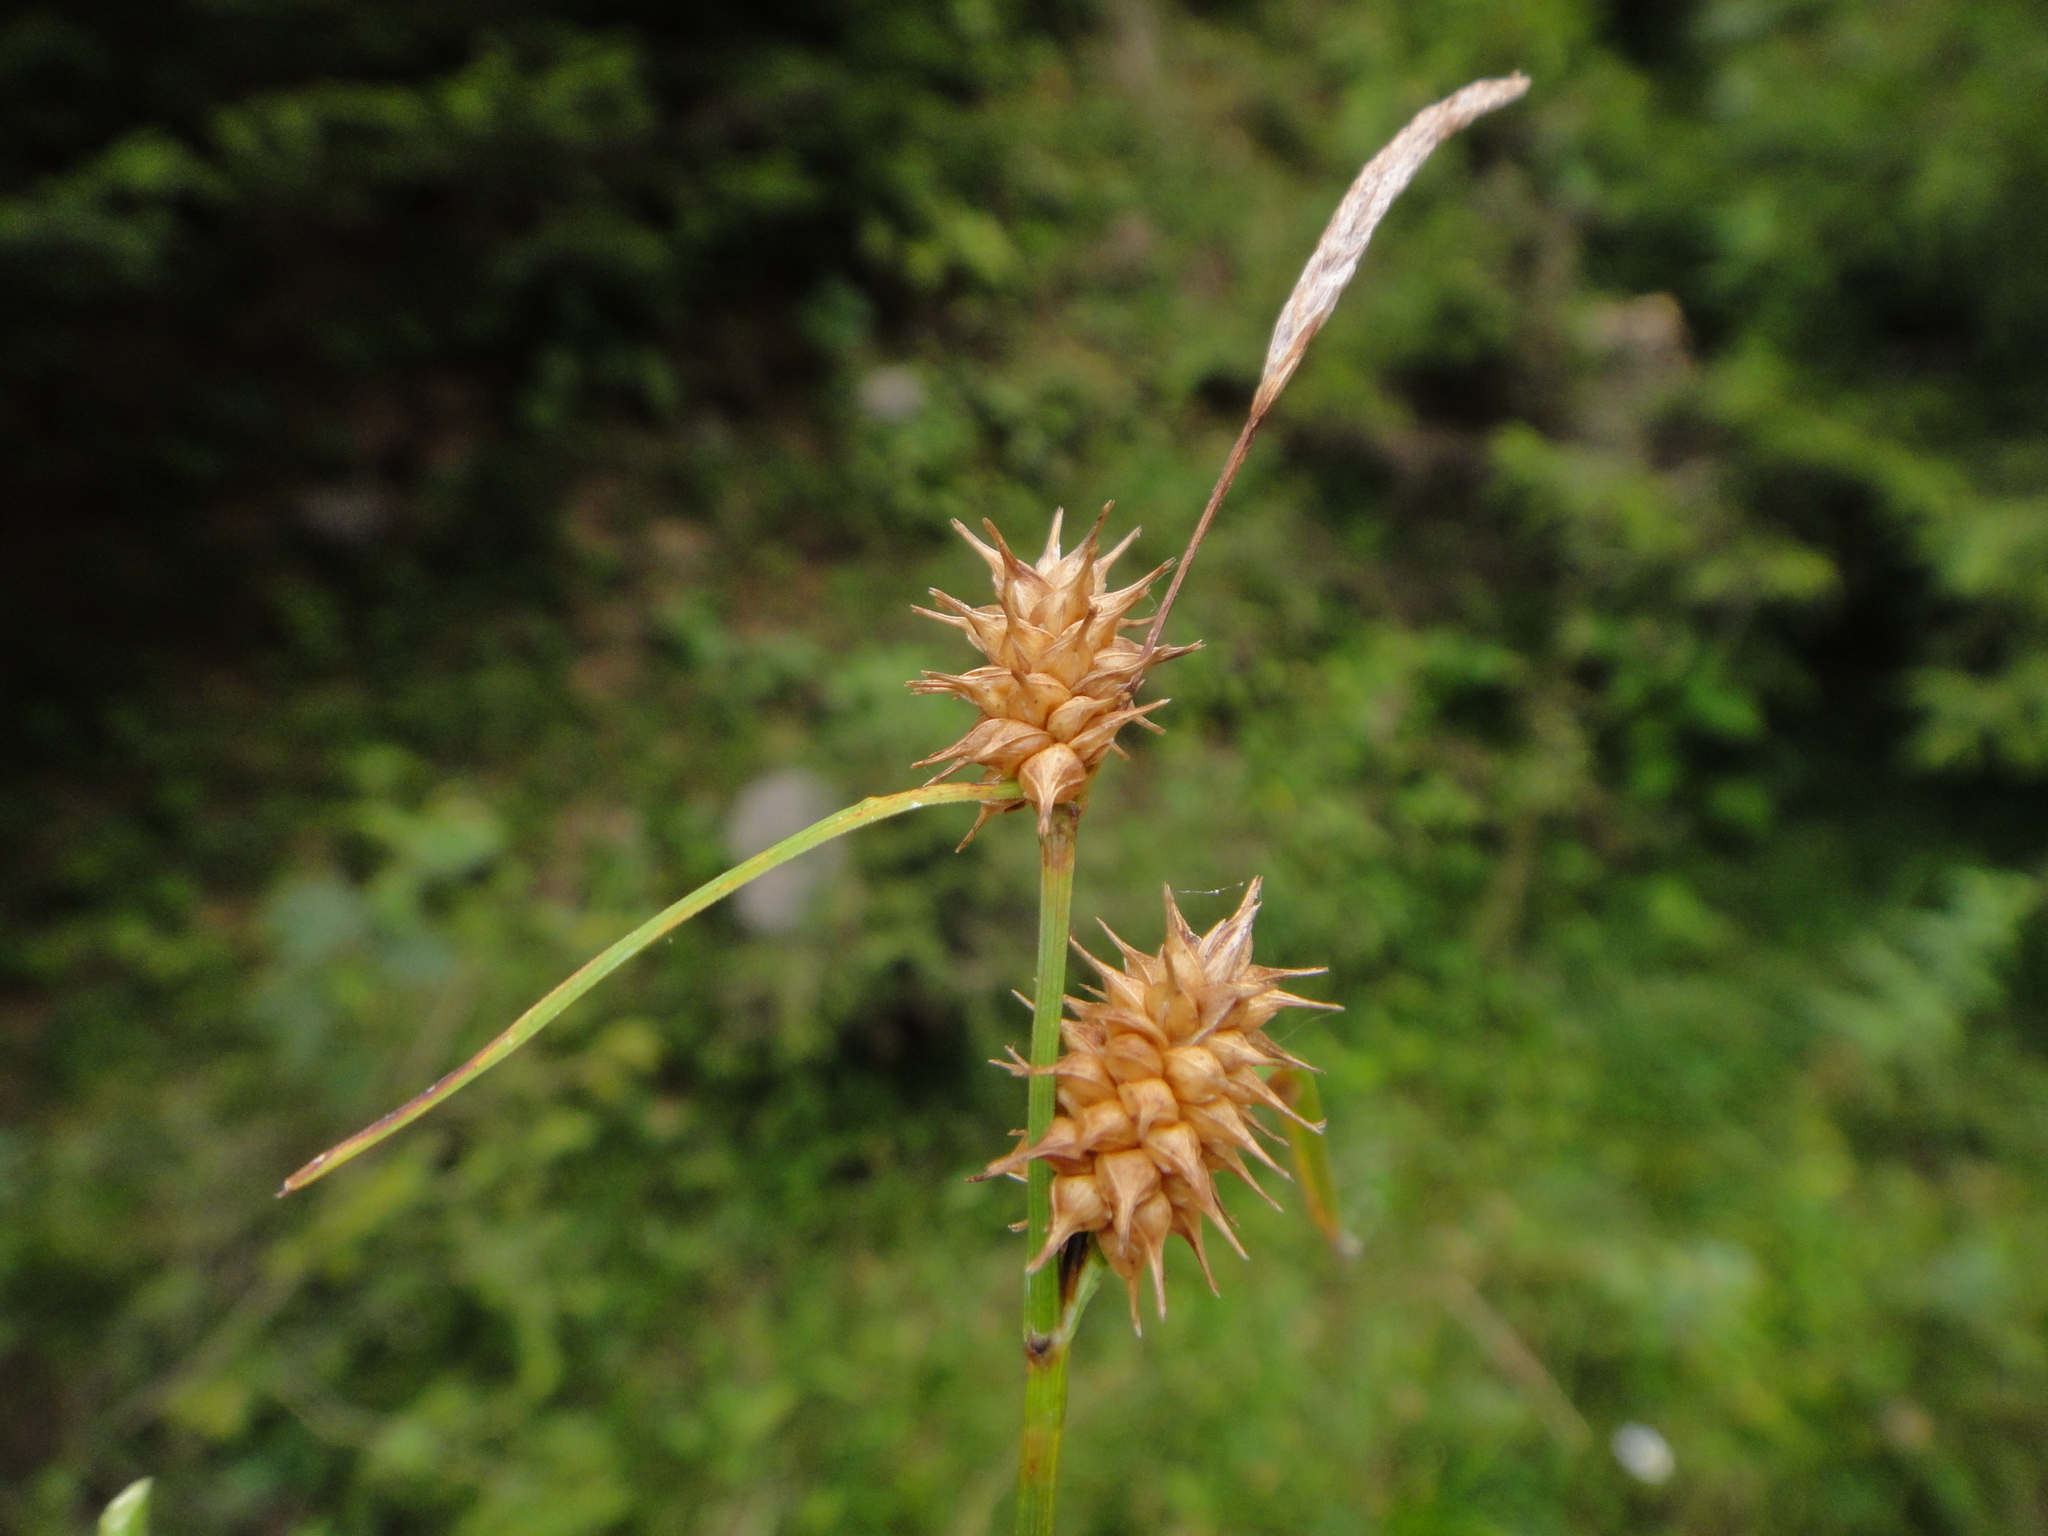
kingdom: Plantae
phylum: Tracheophyta
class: Liliopsida
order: Poales
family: Cyperaceae
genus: Carex
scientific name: Carex lepidocarpa
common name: Long-stalked yellow-sedge
